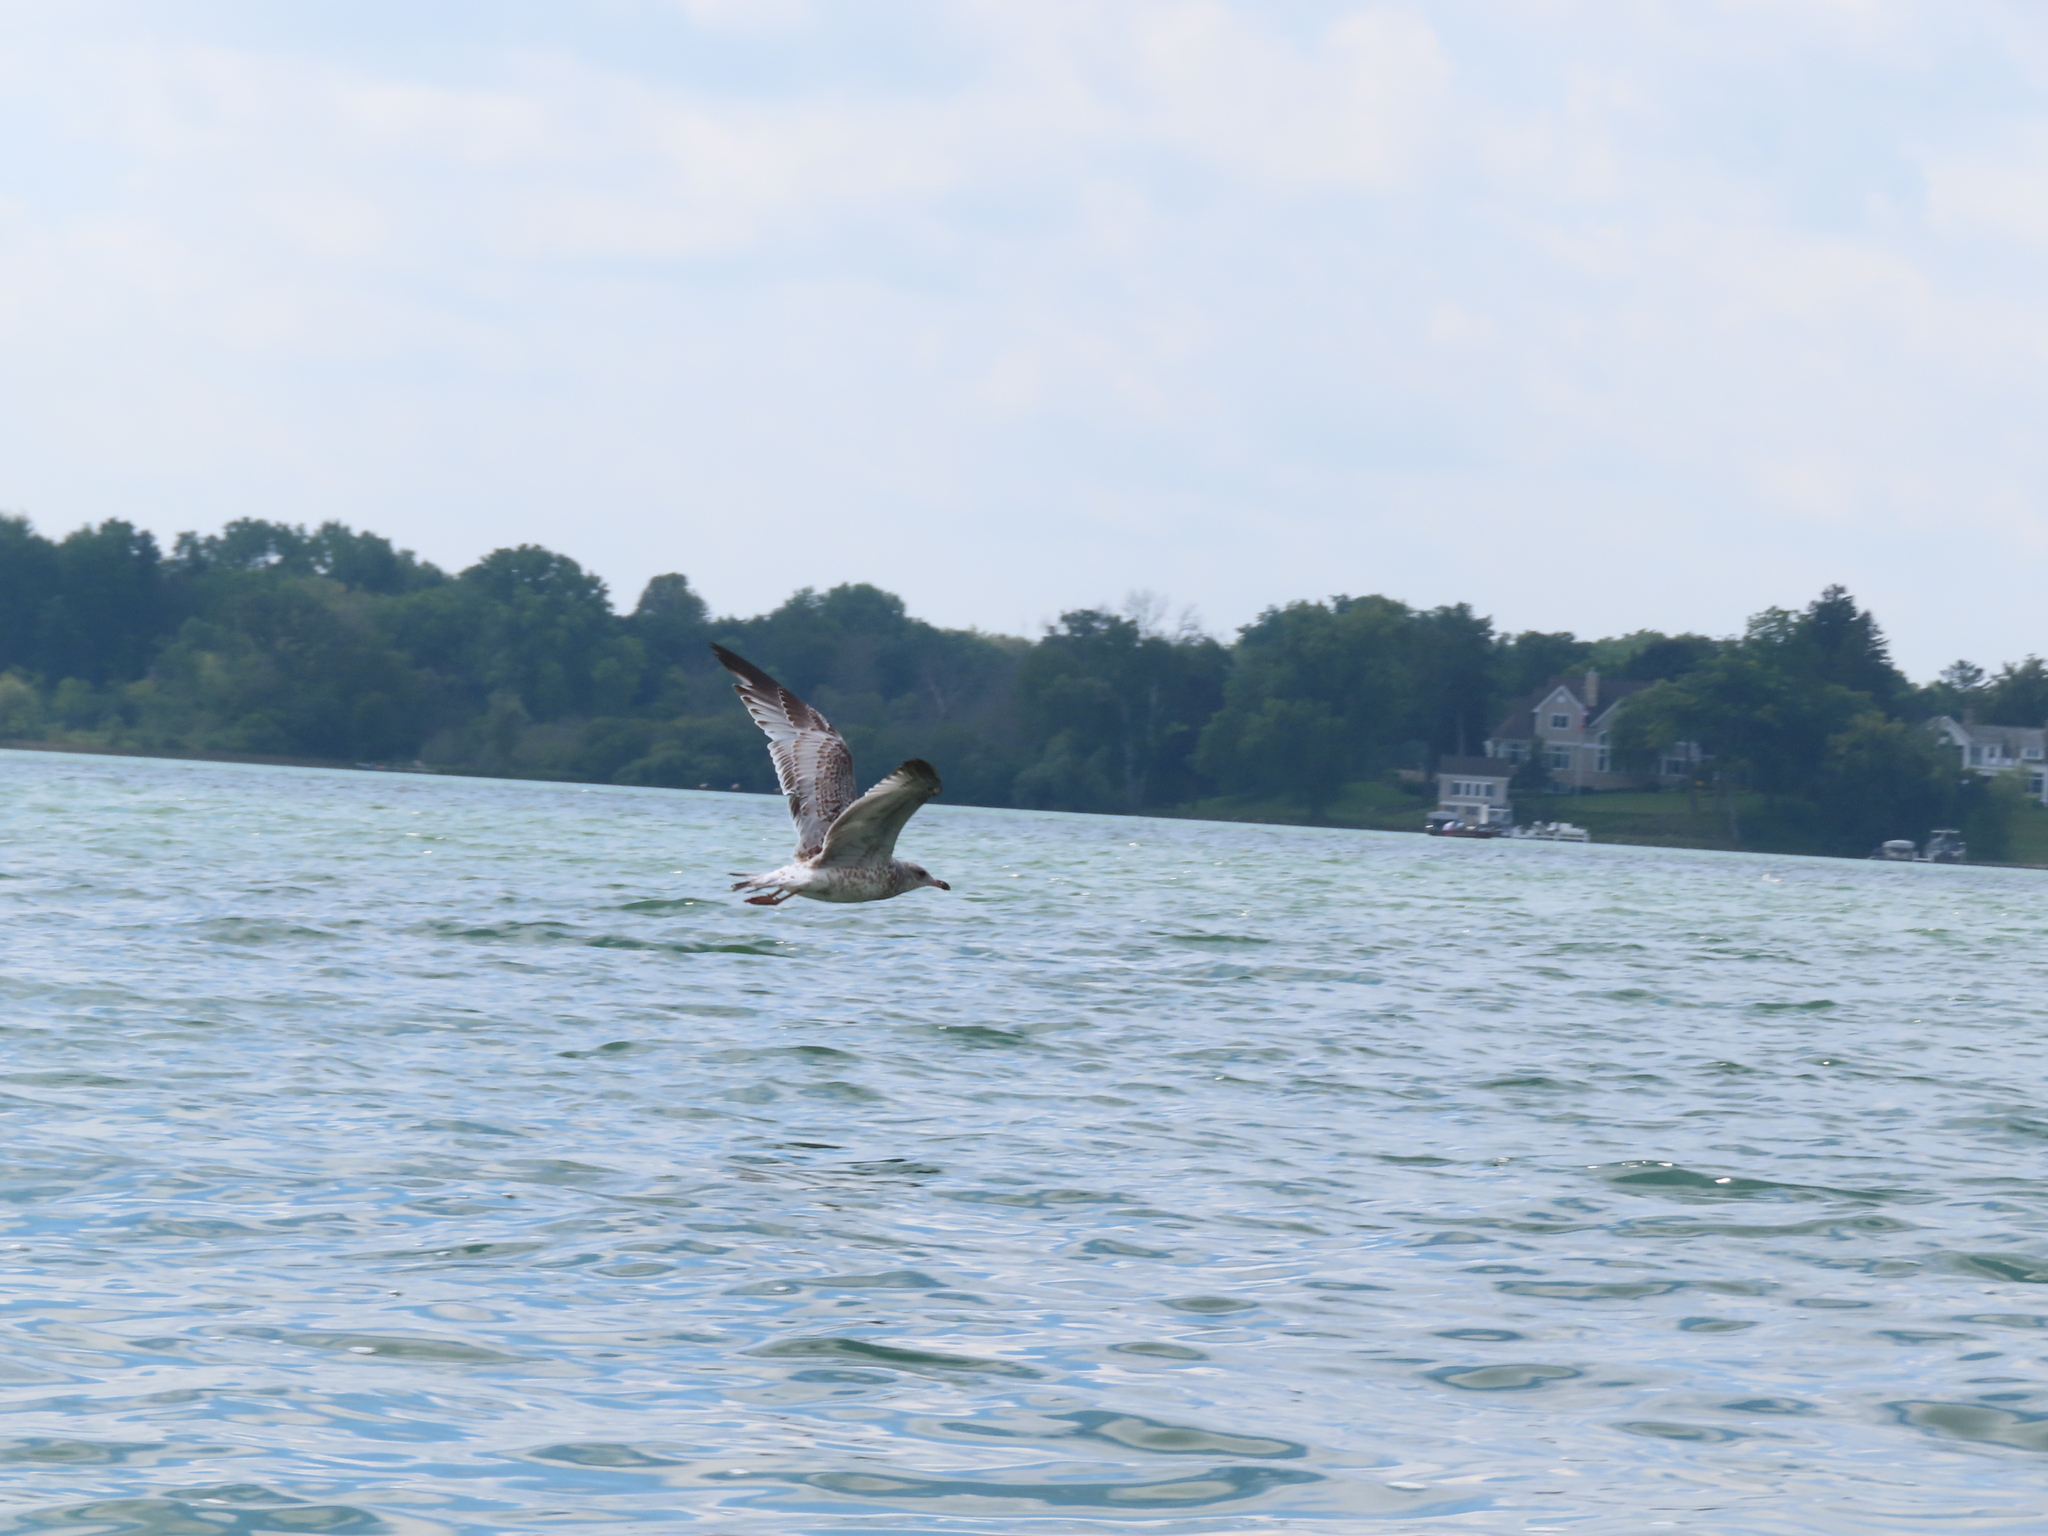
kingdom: Animalia
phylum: Chordata
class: Aves
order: Charadriiformes
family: Laridae
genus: Larus
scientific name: Larus delawarensis
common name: Ring-billed gull
